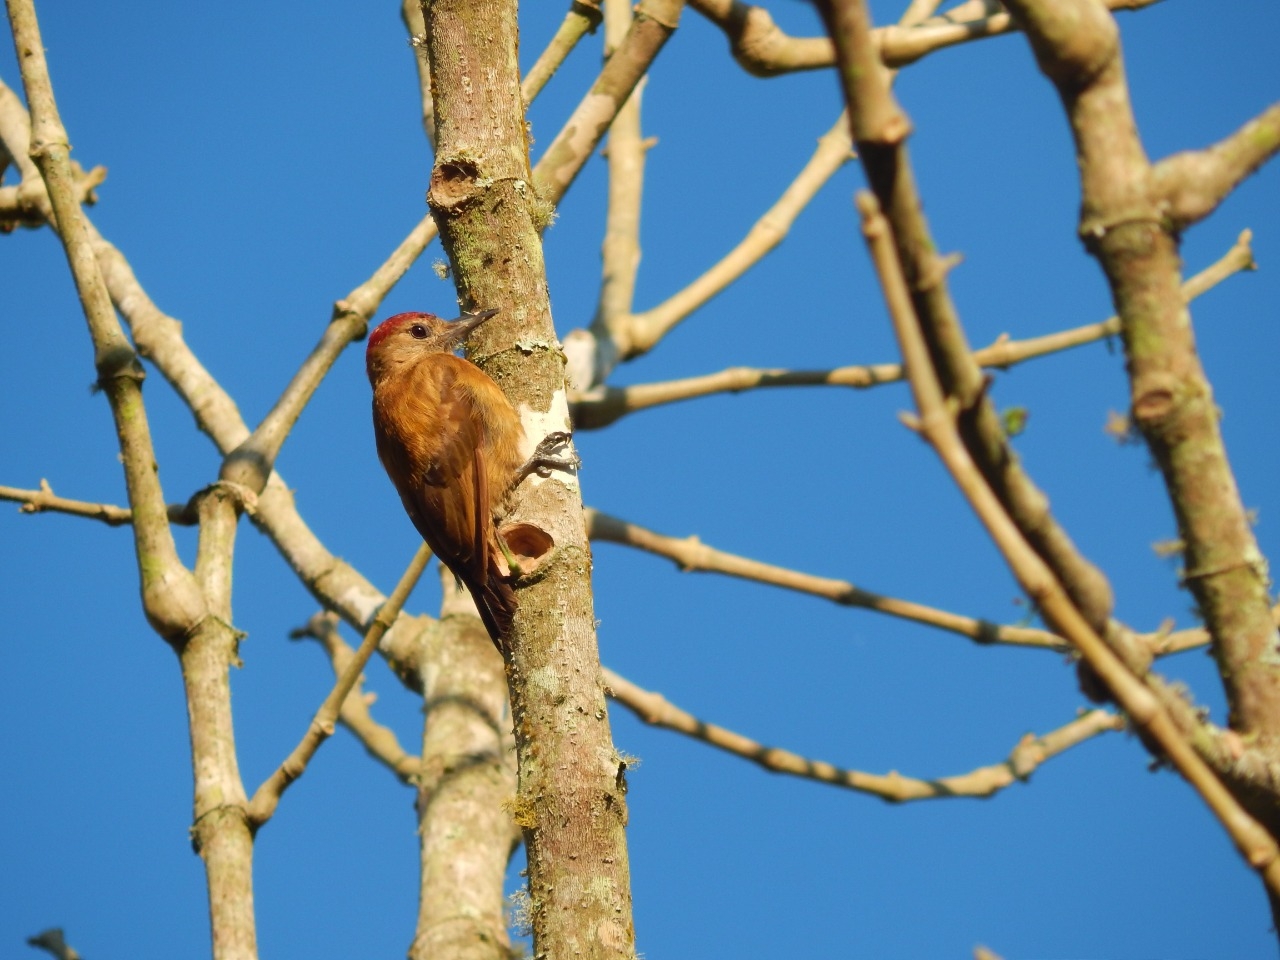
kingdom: Animalia
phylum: Chordata
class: Aves
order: Piciformes
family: Picidae
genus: Leuconotopicus
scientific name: Leuconotopicus fumigatus
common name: Smoky-brown woodpecker
